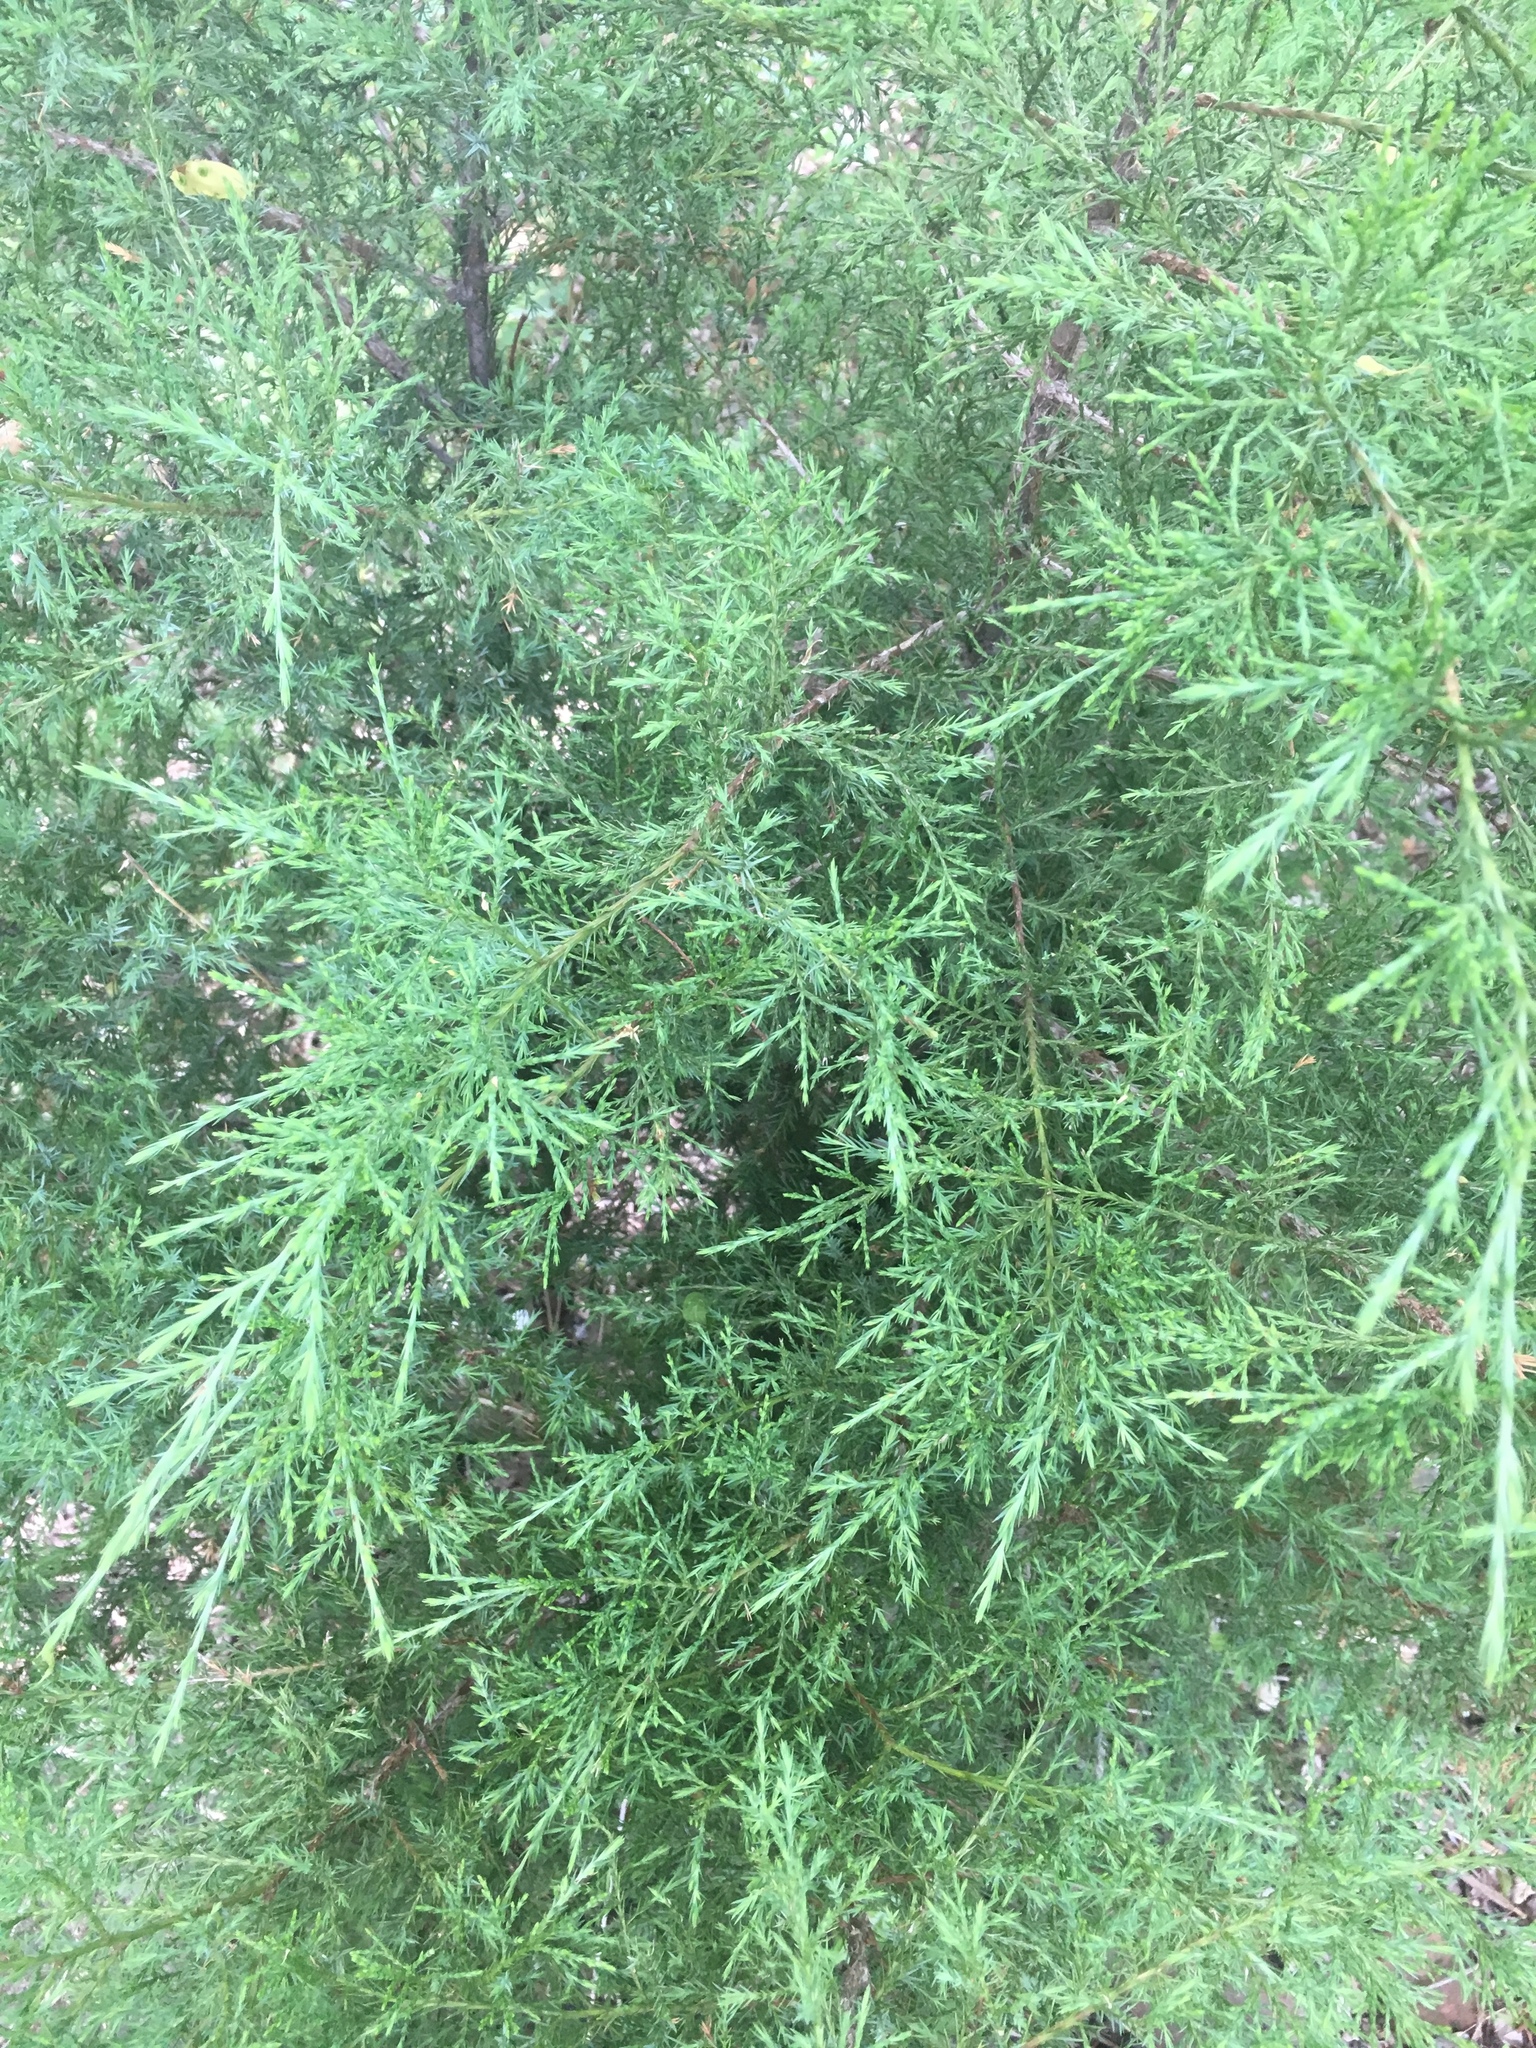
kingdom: Plantae
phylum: Tracheophyta
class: Pinopsida
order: Pinales
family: Cupressaceae
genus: Juniperus
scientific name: Juniperus virginiana
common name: Red juniper
